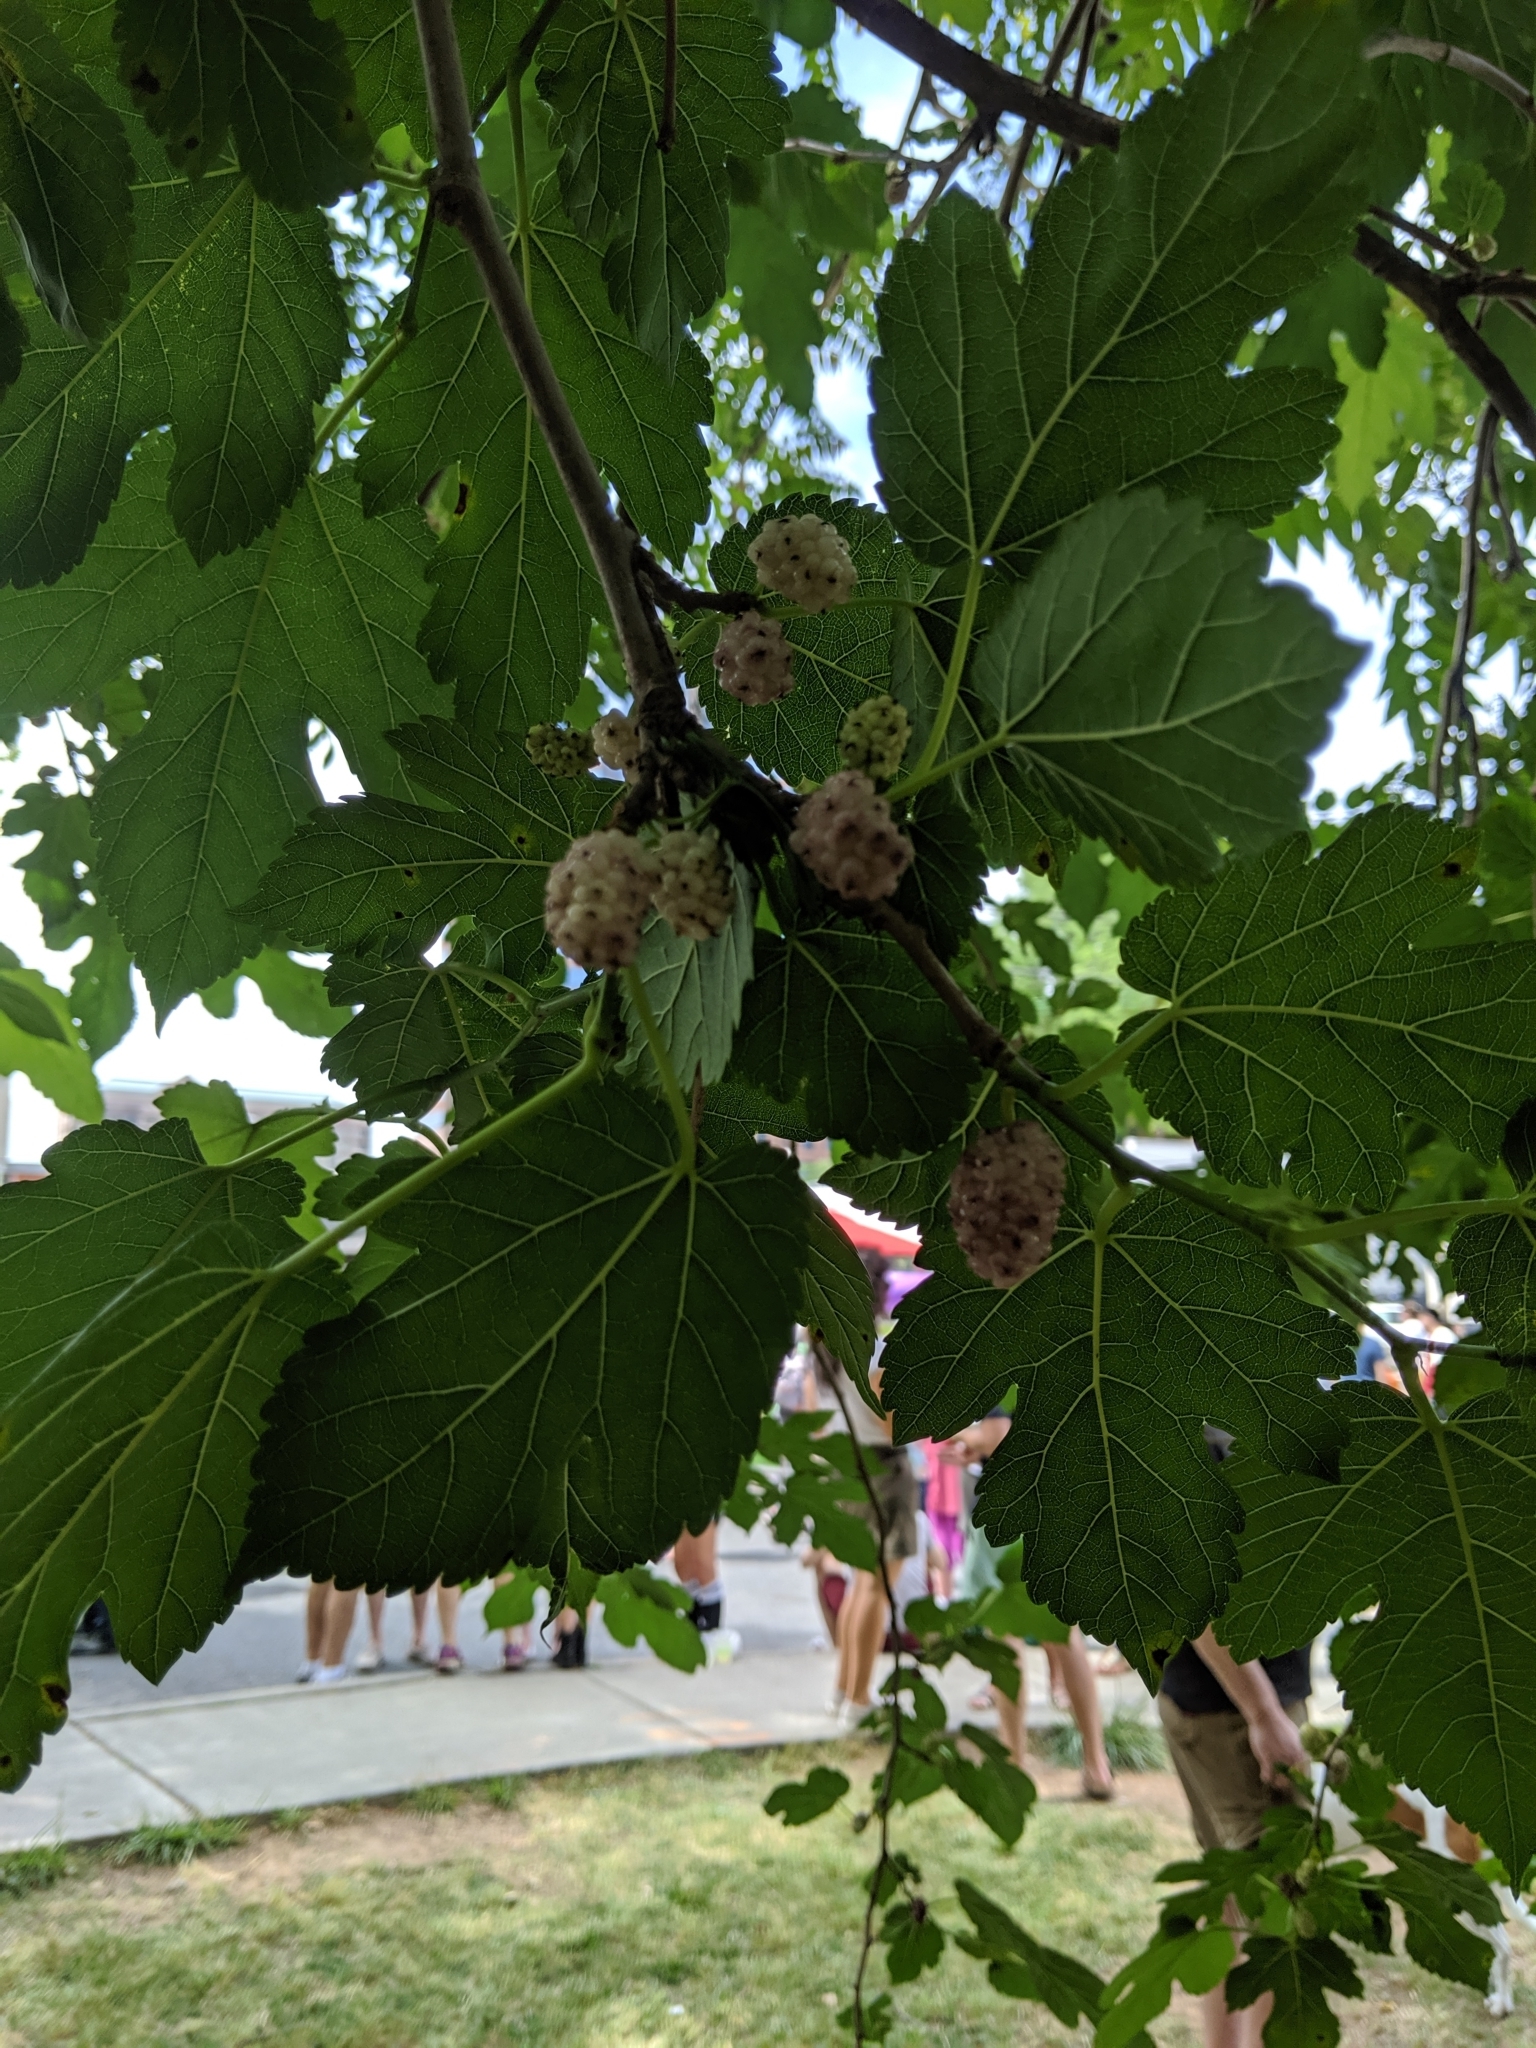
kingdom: Plantae
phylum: Tracheophyta
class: Magnoliopsida
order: Rosales
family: Moraceae
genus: Morus
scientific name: Morus alba
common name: White mulberry
